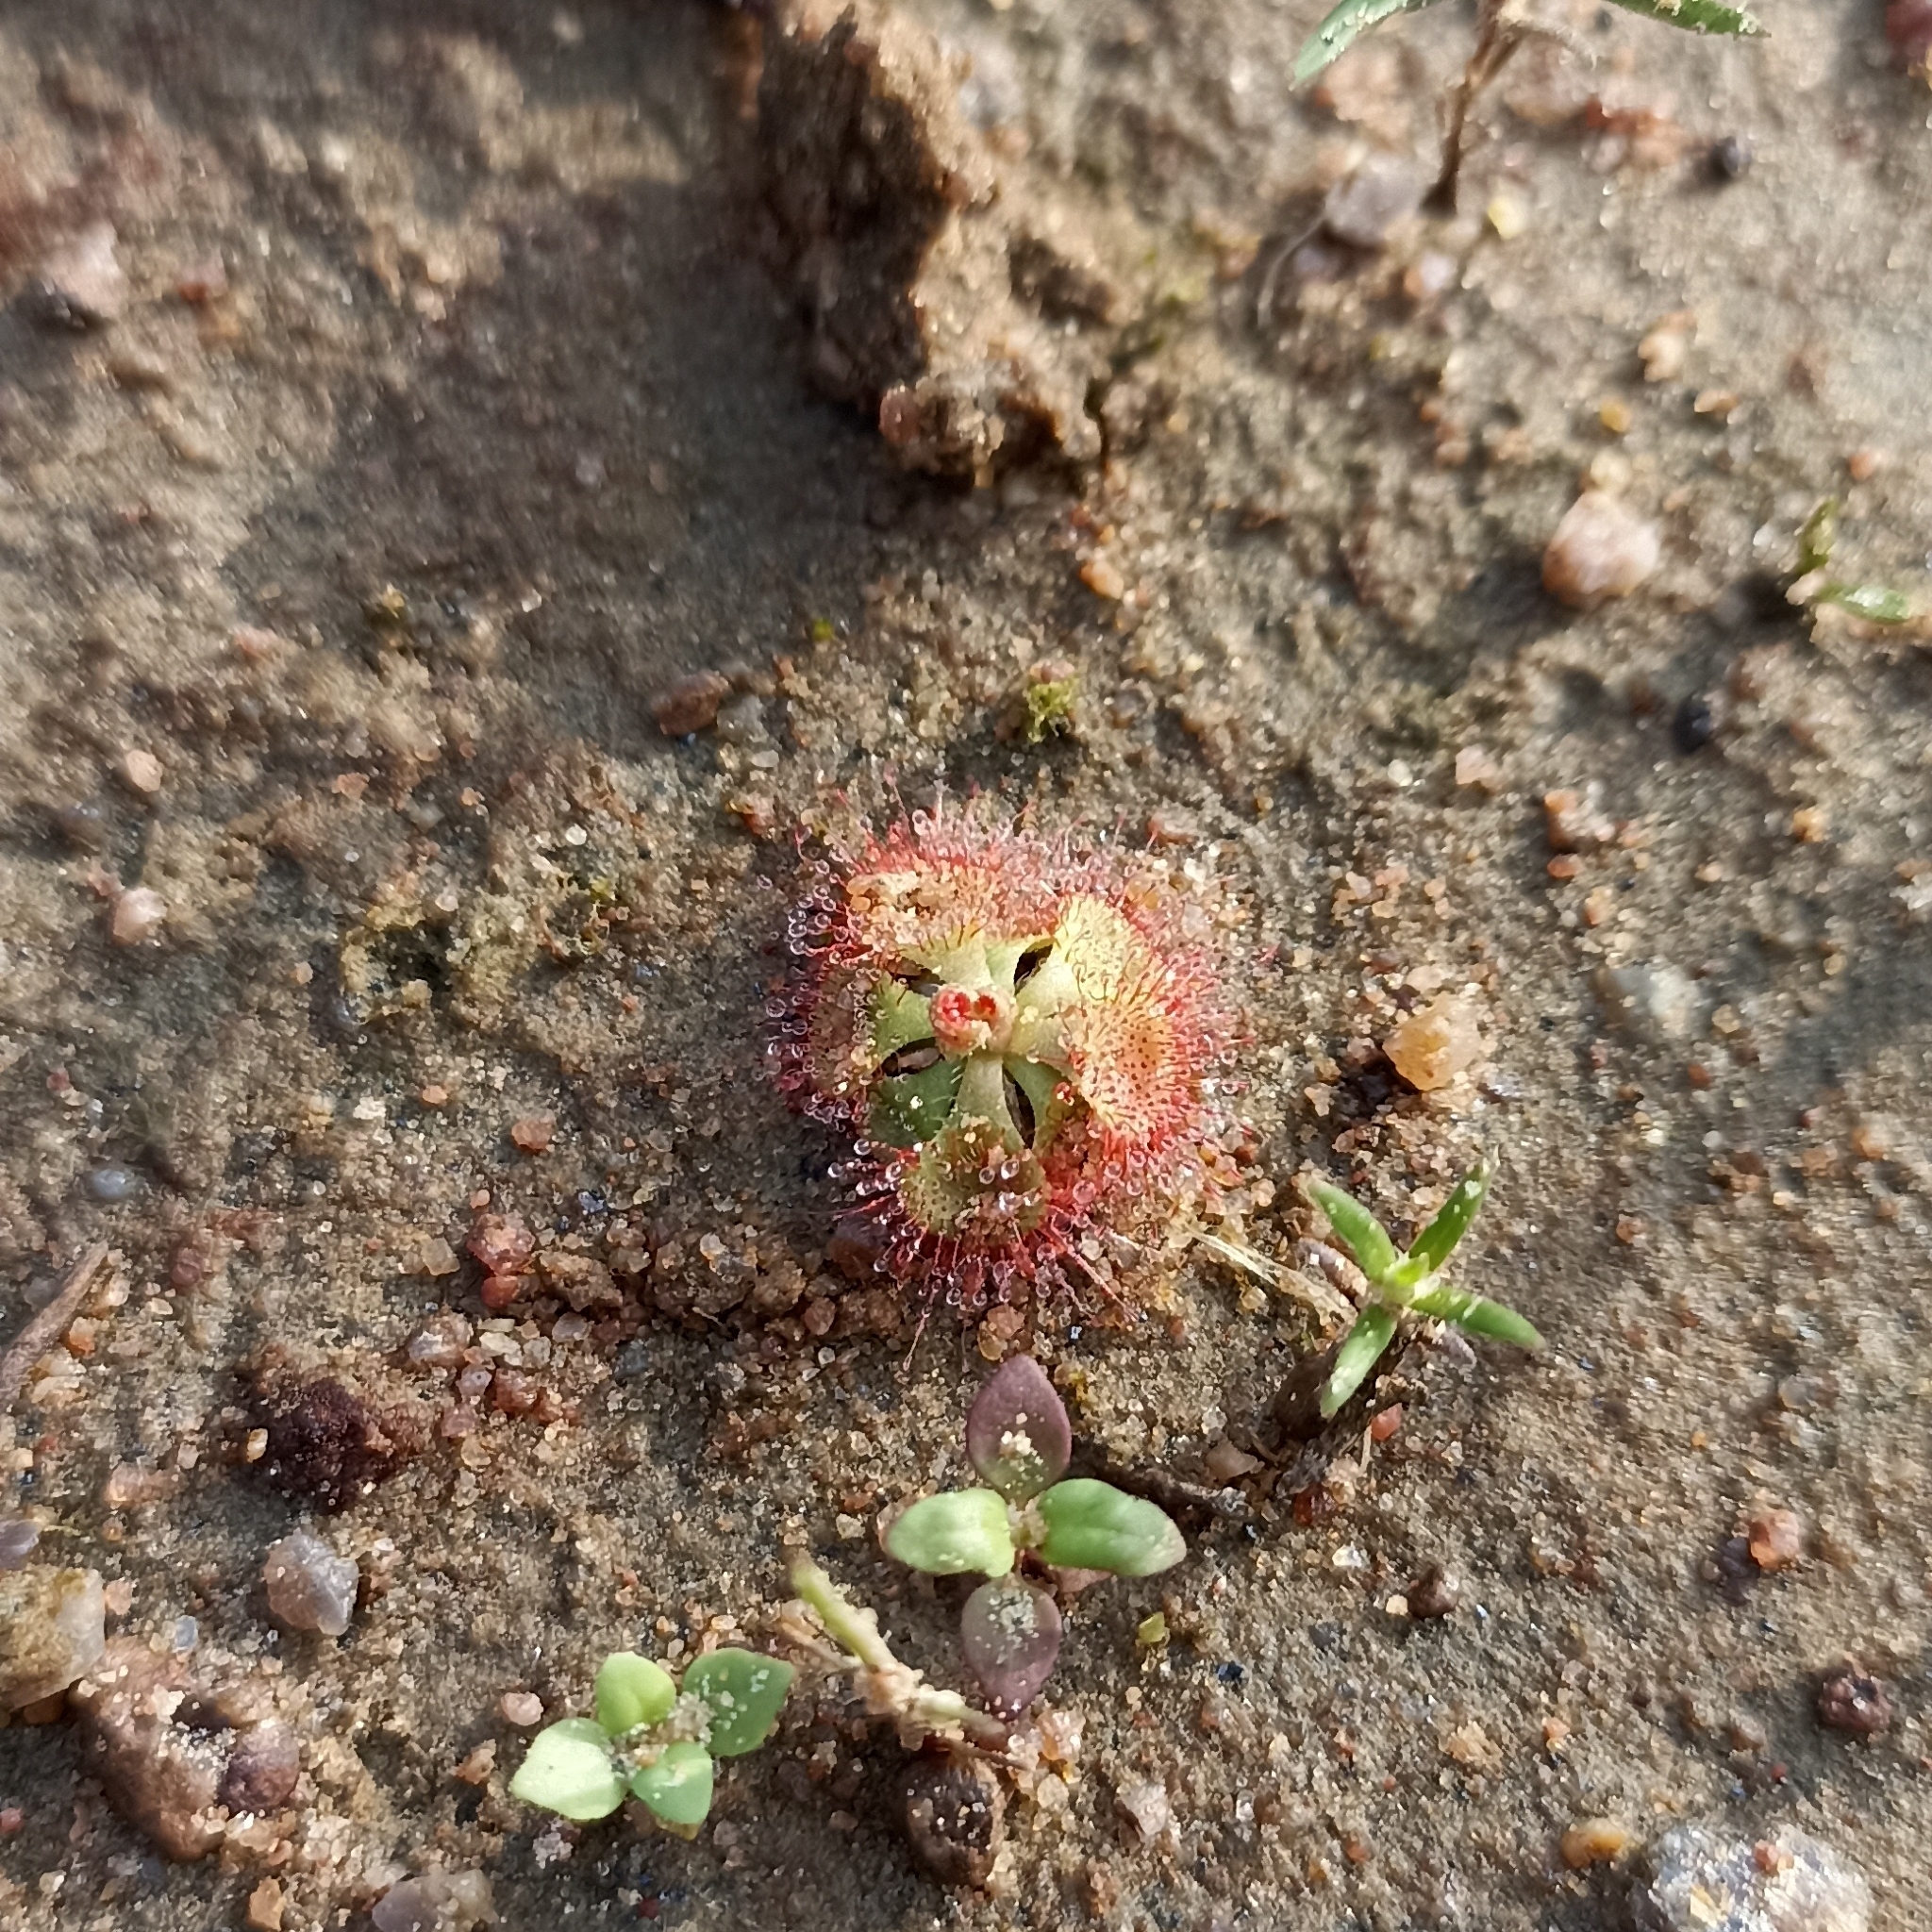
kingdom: Plantae
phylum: Tracheophyta
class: Magnoliopsida
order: Caryophyllales
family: Droseraceae
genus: Drosera
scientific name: Drosera spatulata
